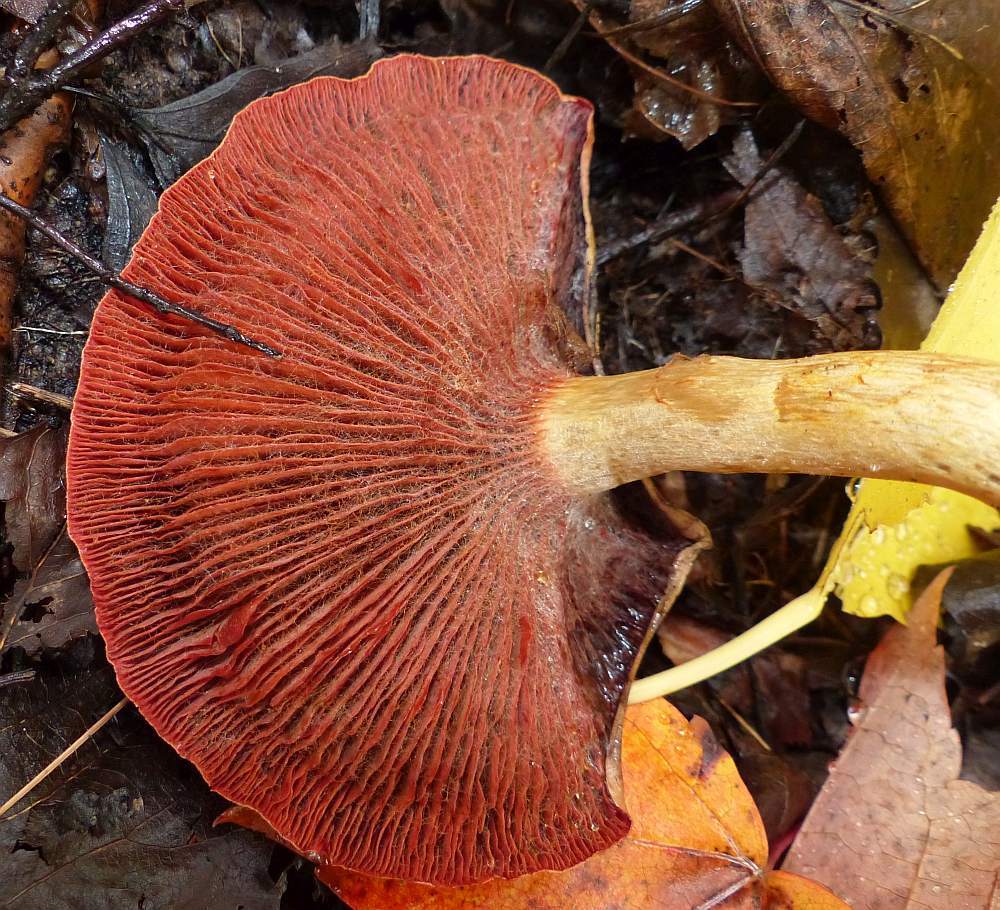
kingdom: Fungi
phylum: Basidiomycota
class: Agaricomycetes
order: Agaricales
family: Cortinariaceae
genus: Cortinarius
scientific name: Cortinarius semisanguineus
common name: Surprise webcap
